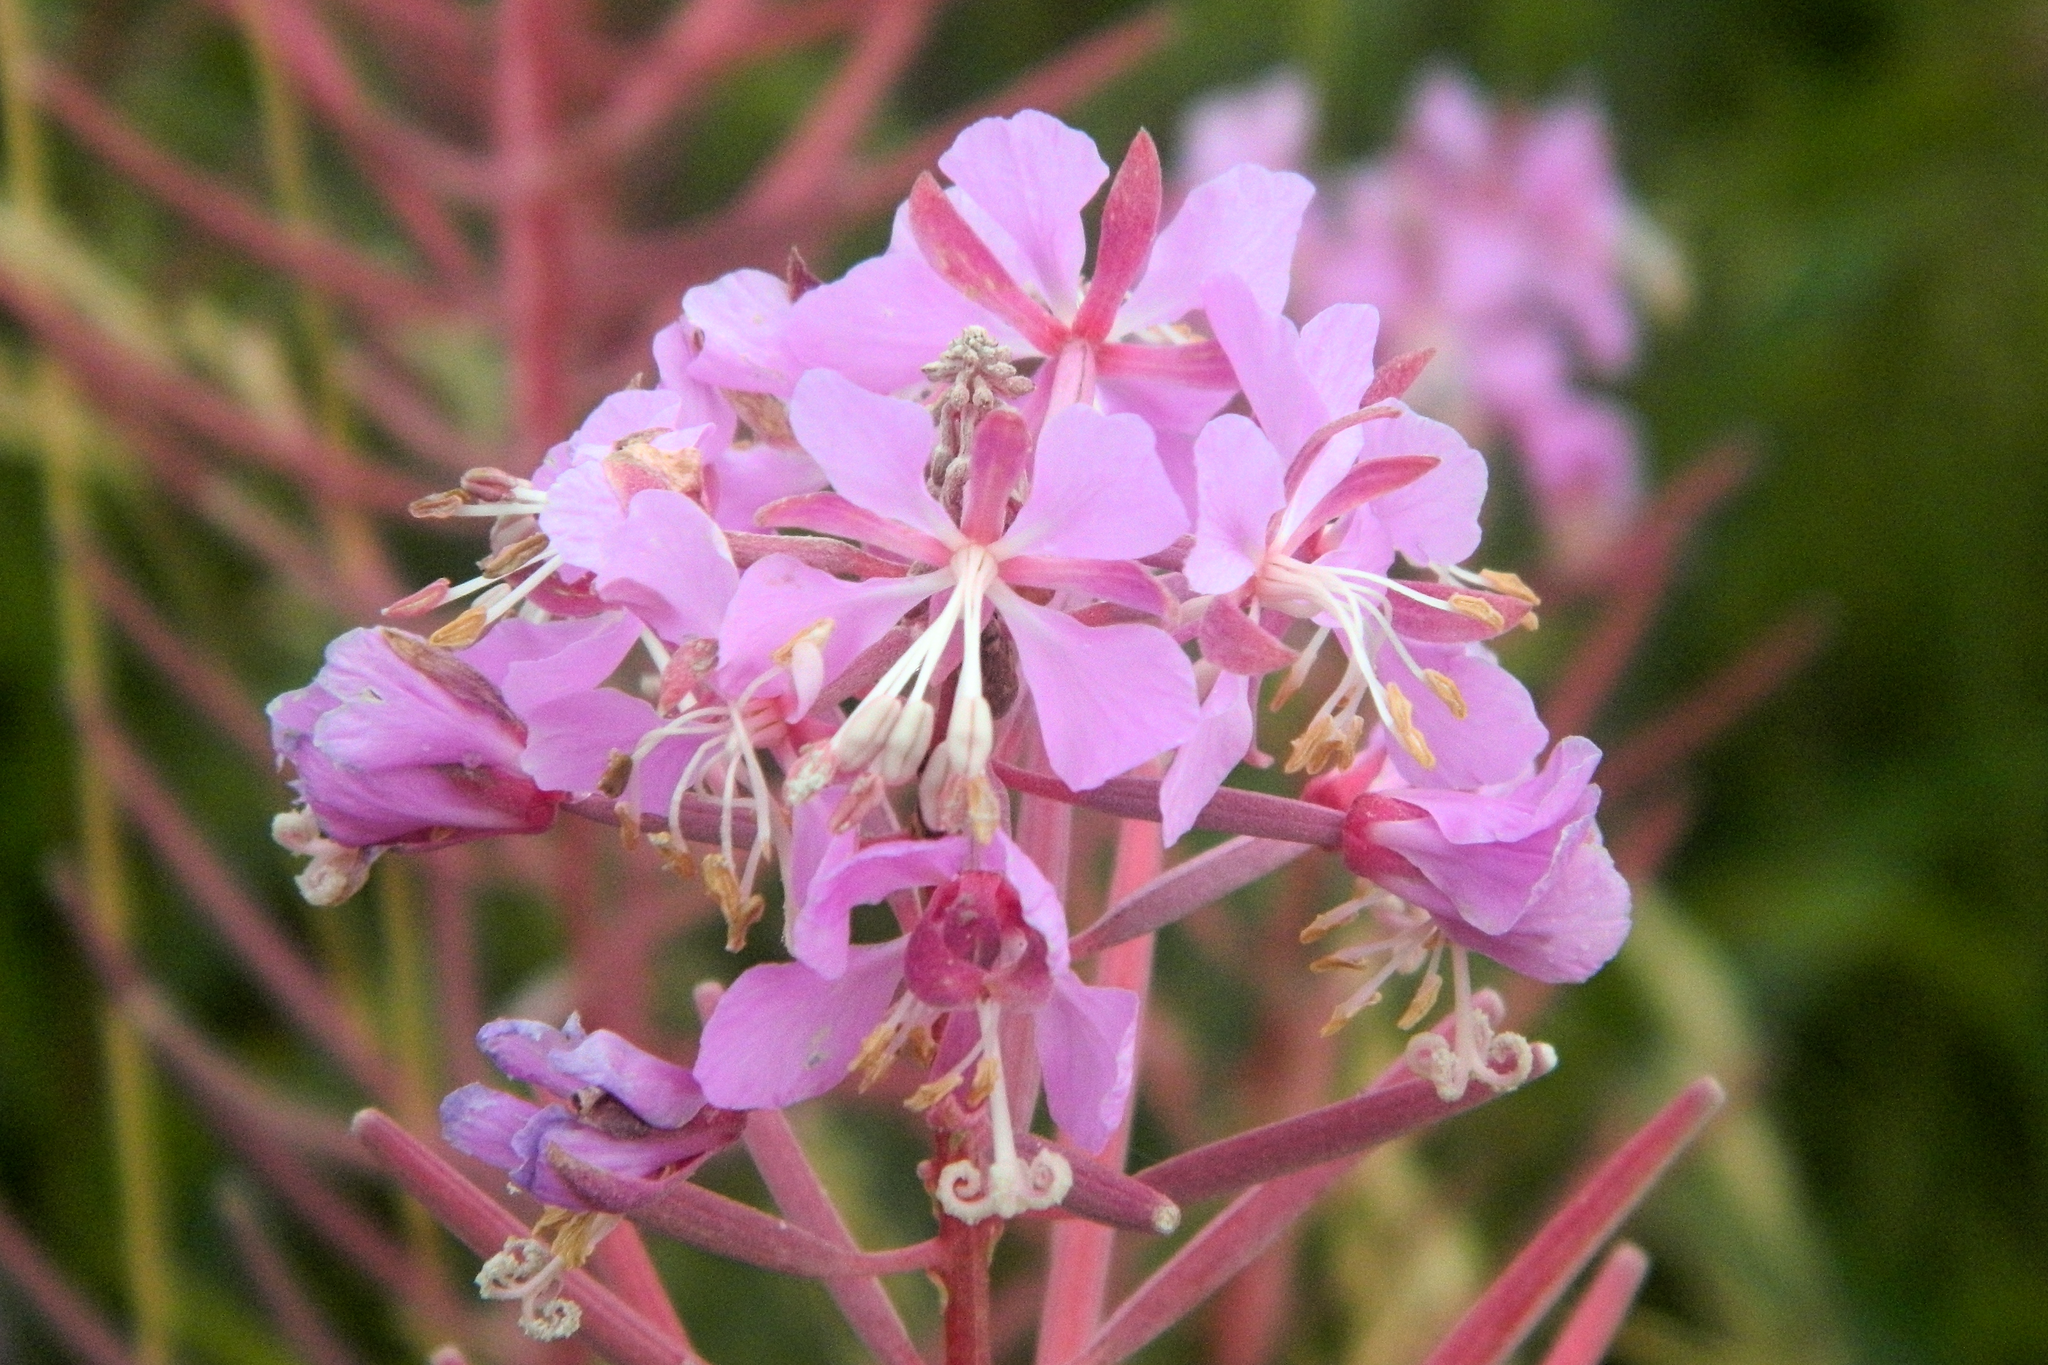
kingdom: Plantae
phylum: Tracheophyta
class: Magnoliopsida
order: Myrtales
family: Onagraceae
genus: Chamaenerion
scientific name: Chamaenerion angustifolium
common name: Fireweed
